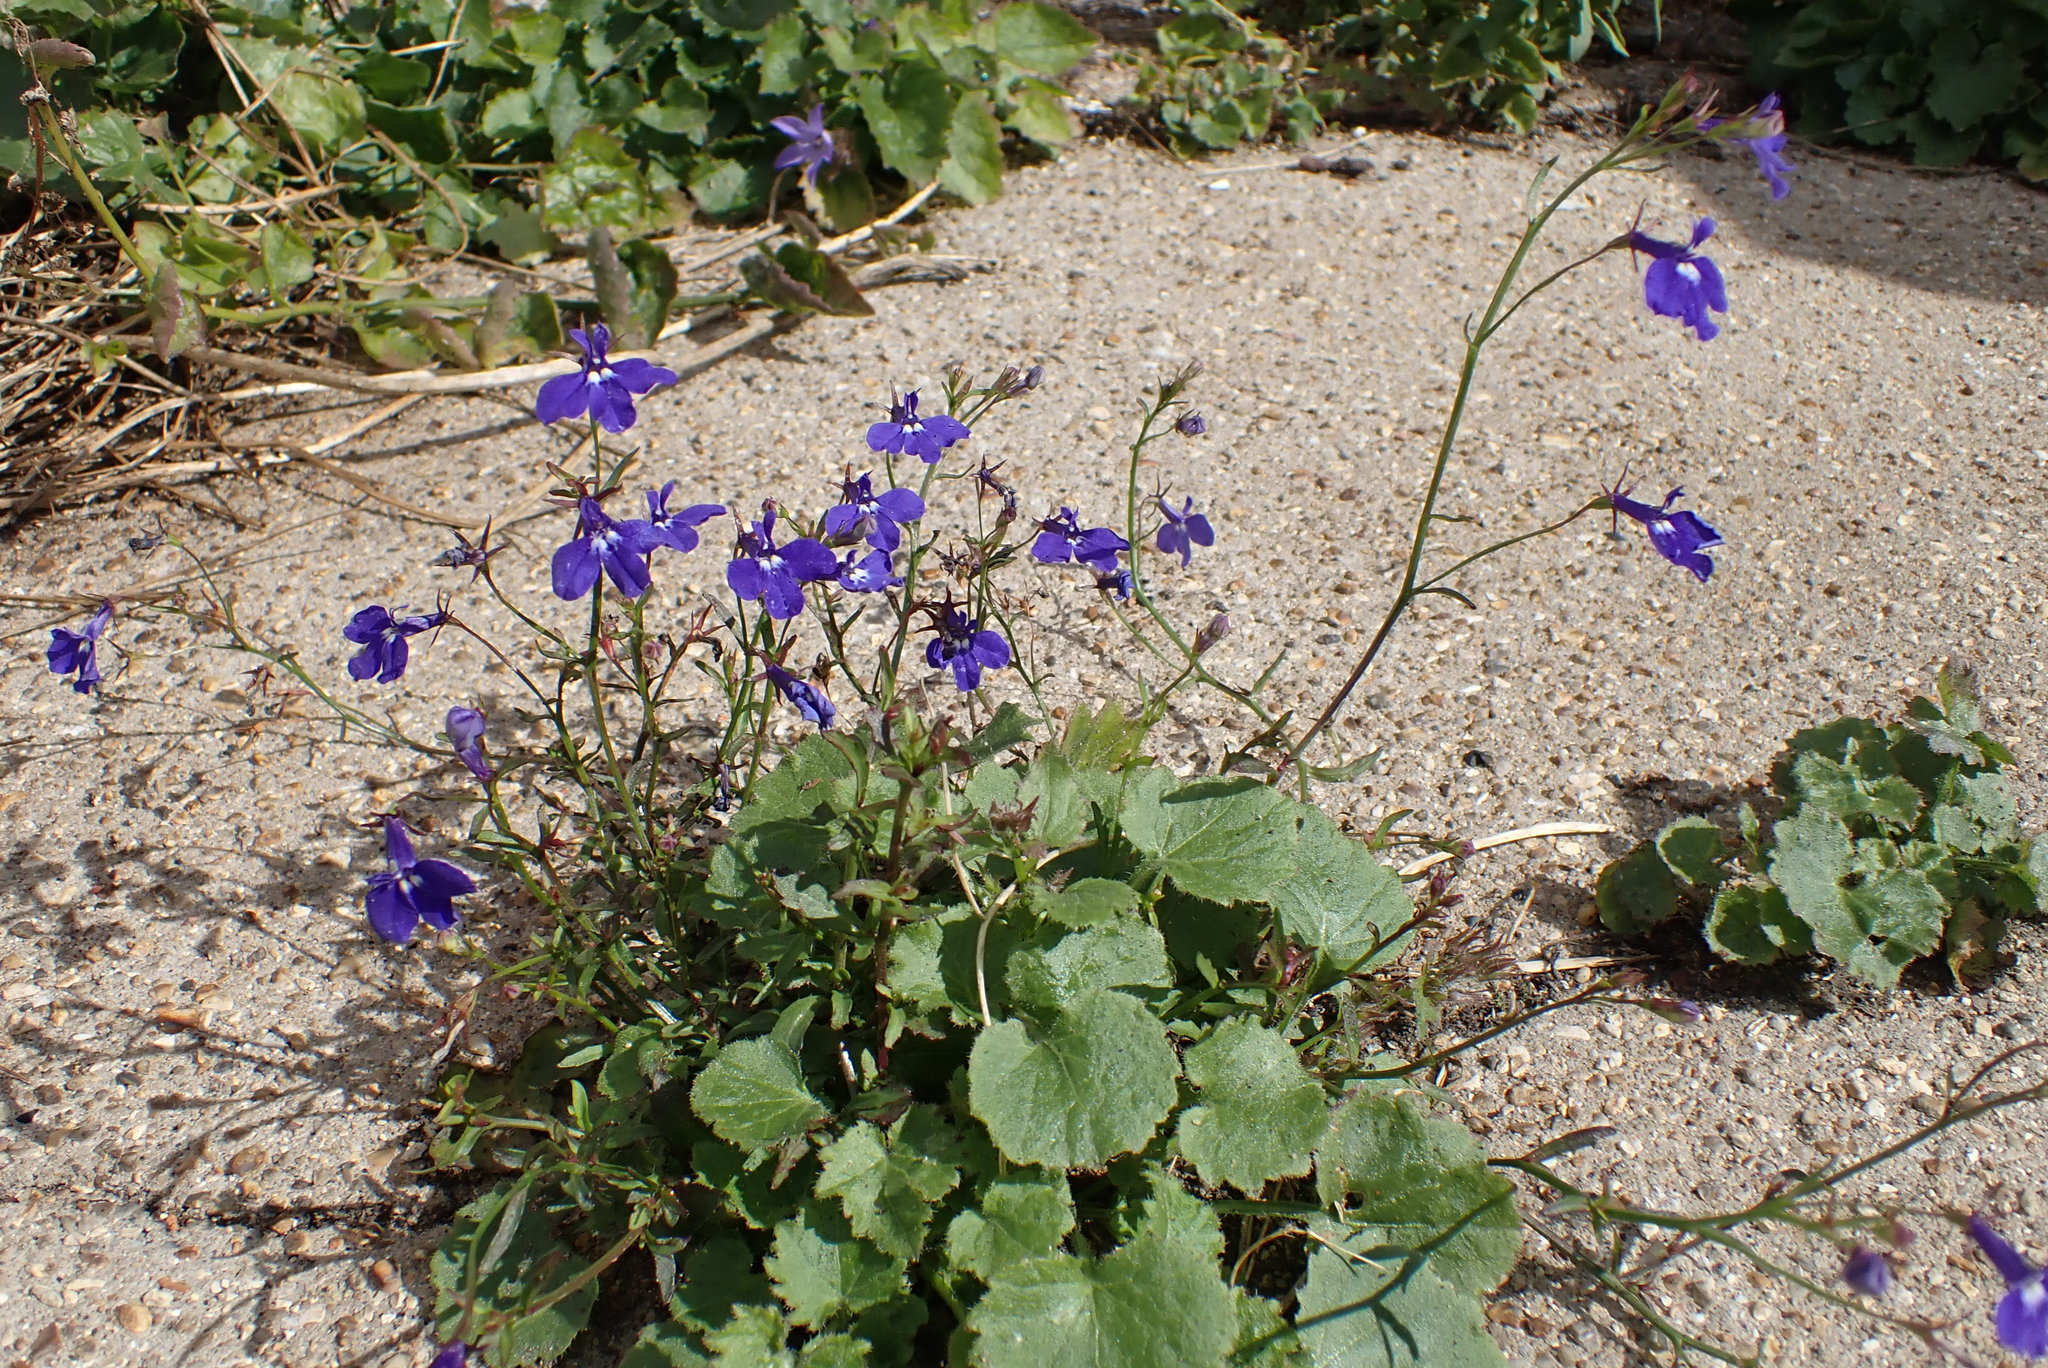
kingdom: Plantae
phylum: Tracheophyta
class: Magnoliopsida
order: Asterales
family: Campanulaceae
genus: Lobelia
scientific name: Lobelia erinus
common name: Edging lobelia
